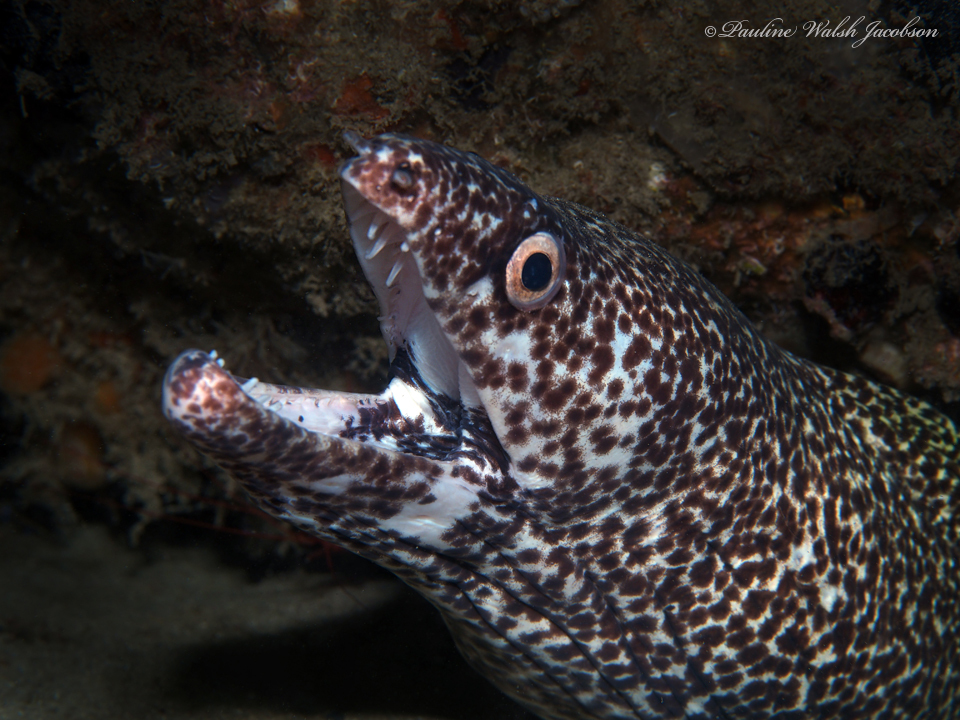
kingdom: Animalia
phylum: Chordata
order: Anguilliformes
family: Muraenidae
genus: Gymnothorax
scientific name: Gymnothorax moringa
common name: Spotted moray
